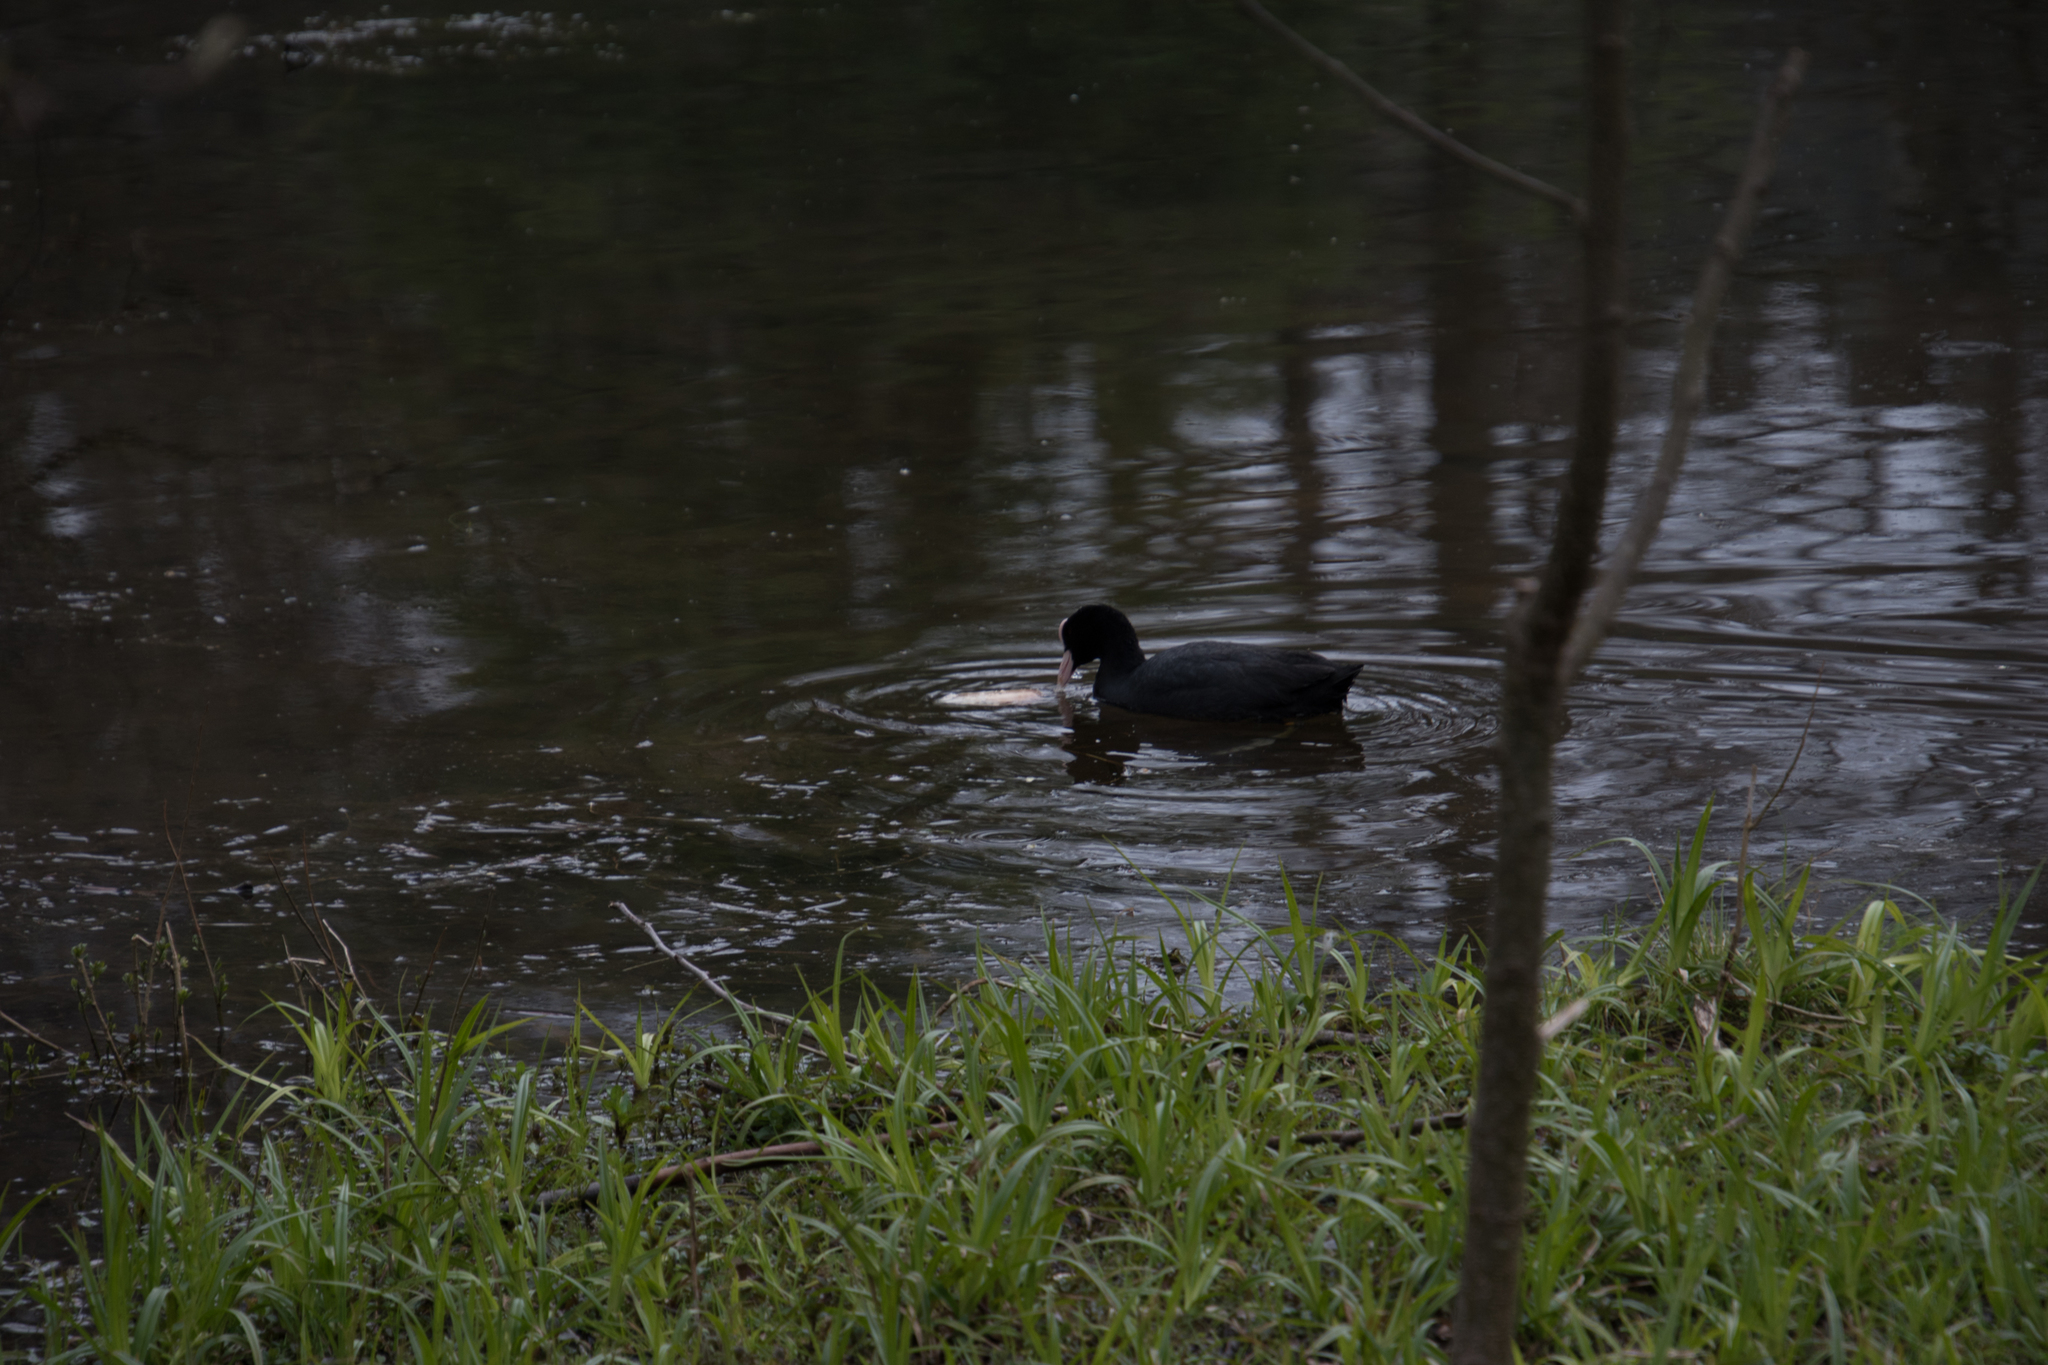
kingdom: Animalia
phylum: Chordata
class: Aves
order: Gruiformes
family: Rallidae
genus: Fulica
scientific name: Fulica atra
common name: Eurasian coot
